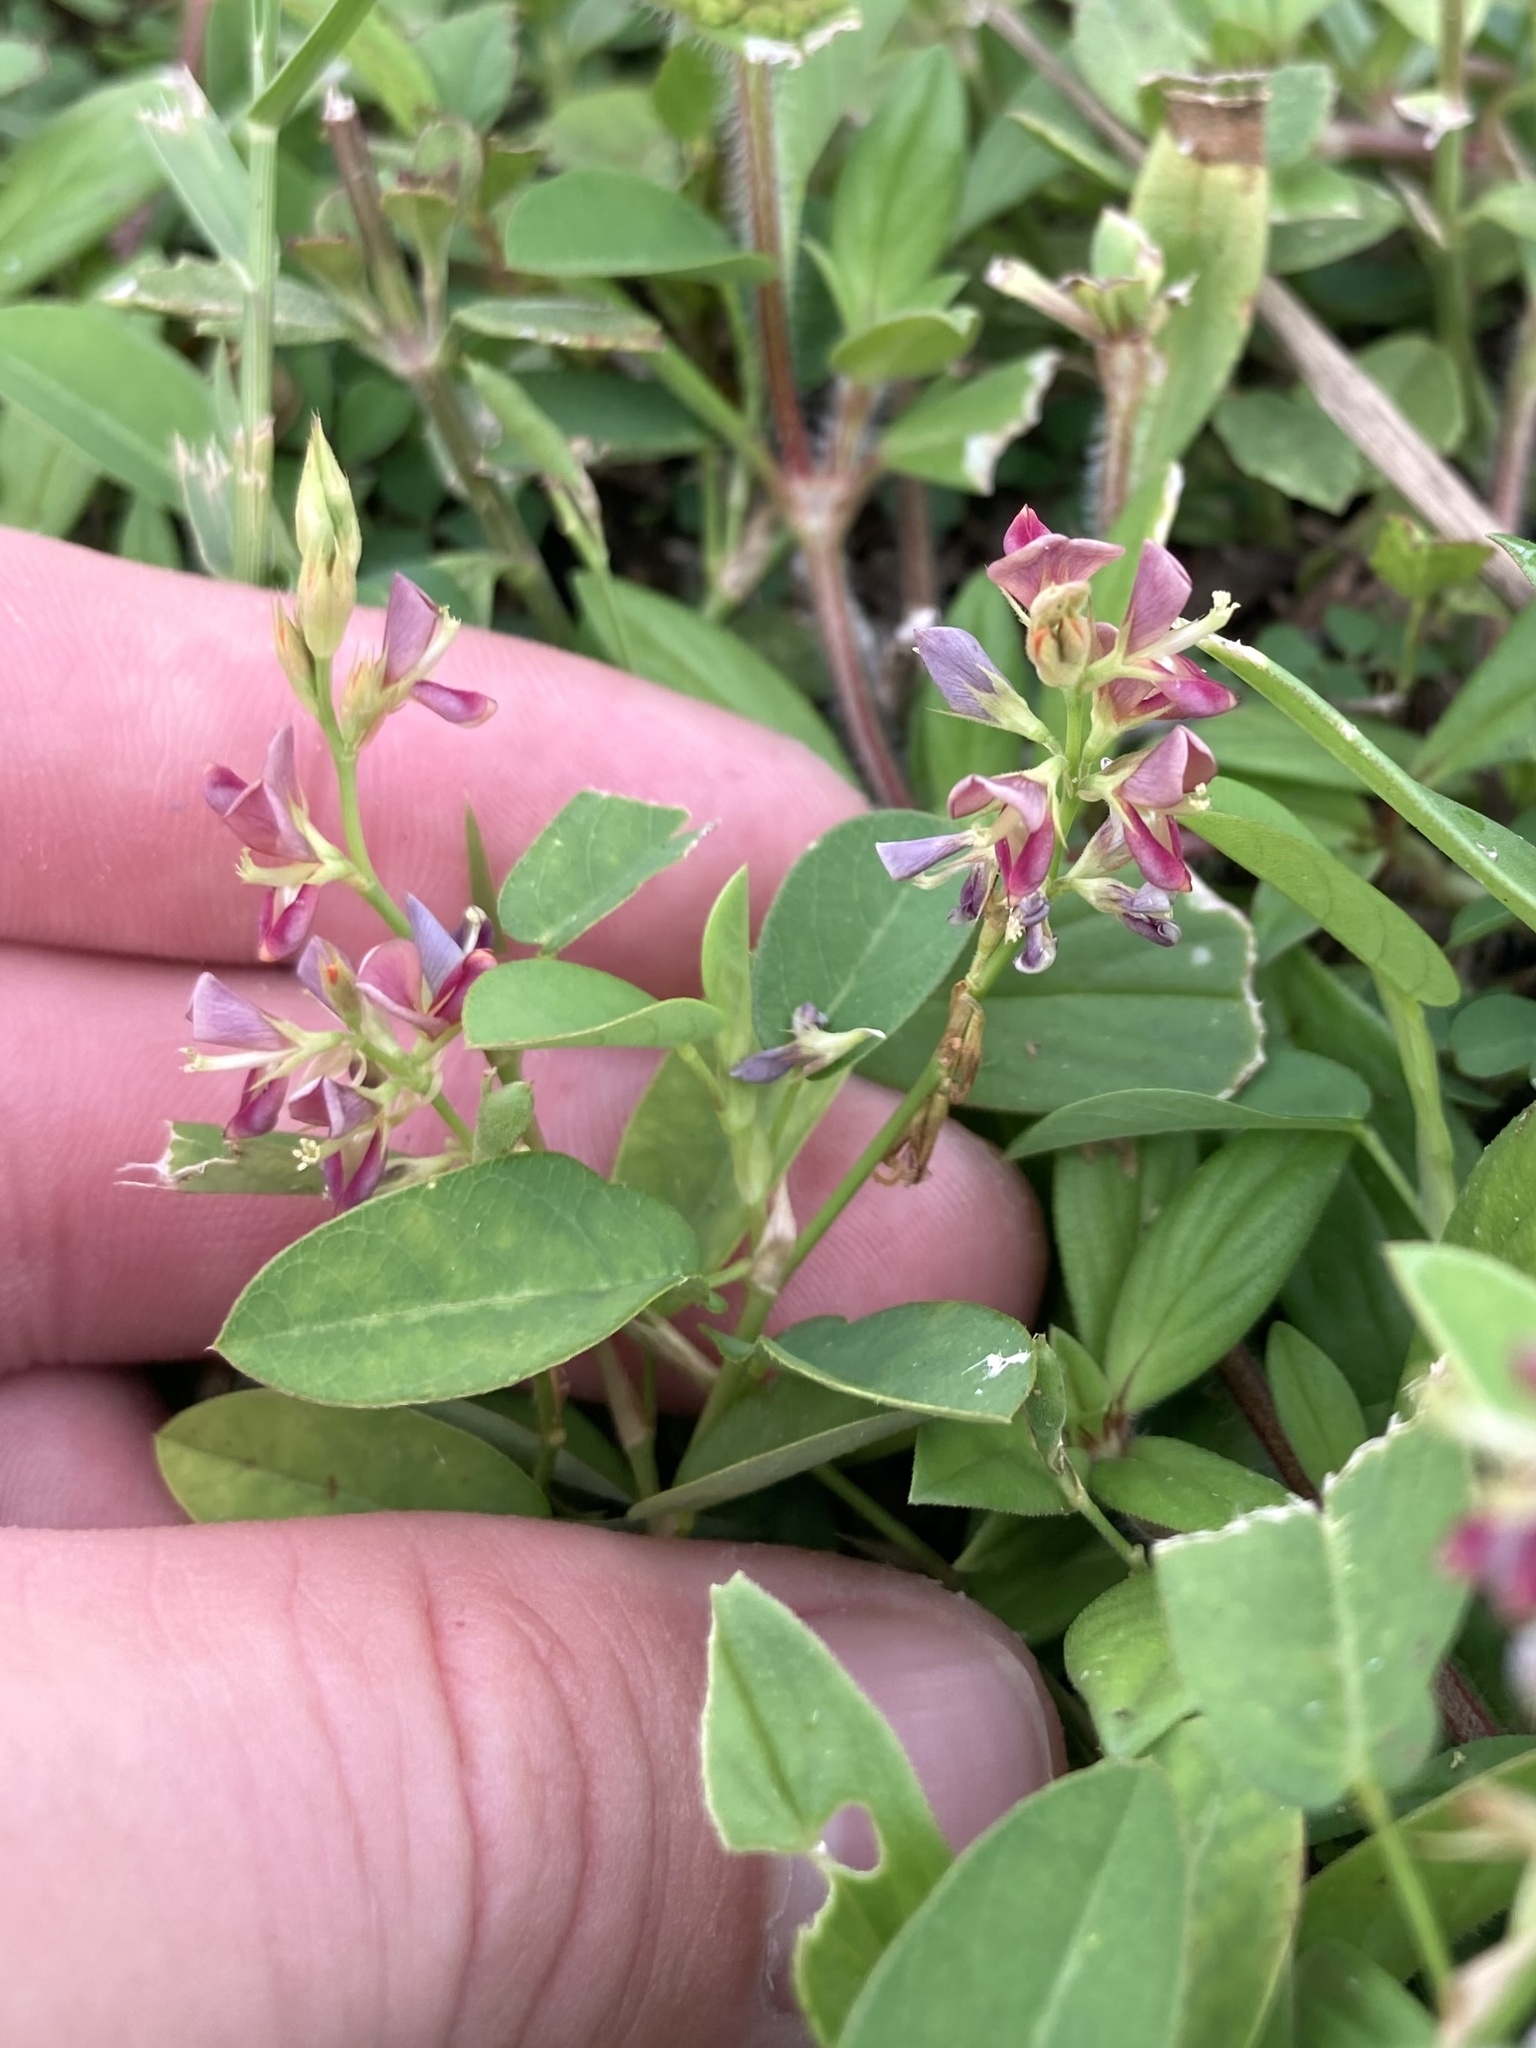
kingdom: Plantae
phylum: Tracheophyta
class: Magnoliopsida
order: Fabales
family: Fabaceae
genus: Alysicarpus
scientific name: Alysicarpus vaginalis
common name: White moneywort
